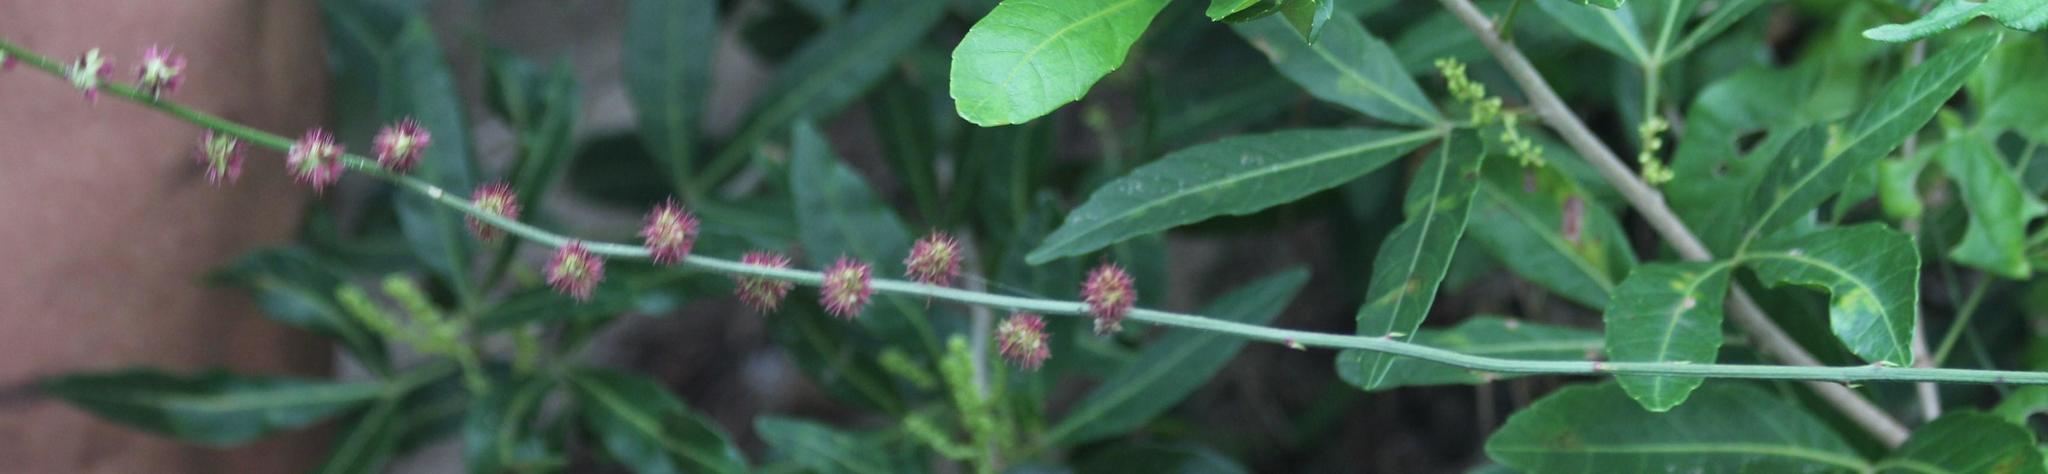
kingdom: Plantae
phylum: Tracheophyta
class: Magnoliopsida
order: Caryophyllales
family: Amaranthaceae
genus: Pupalia
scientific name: Pupalia lappacea
